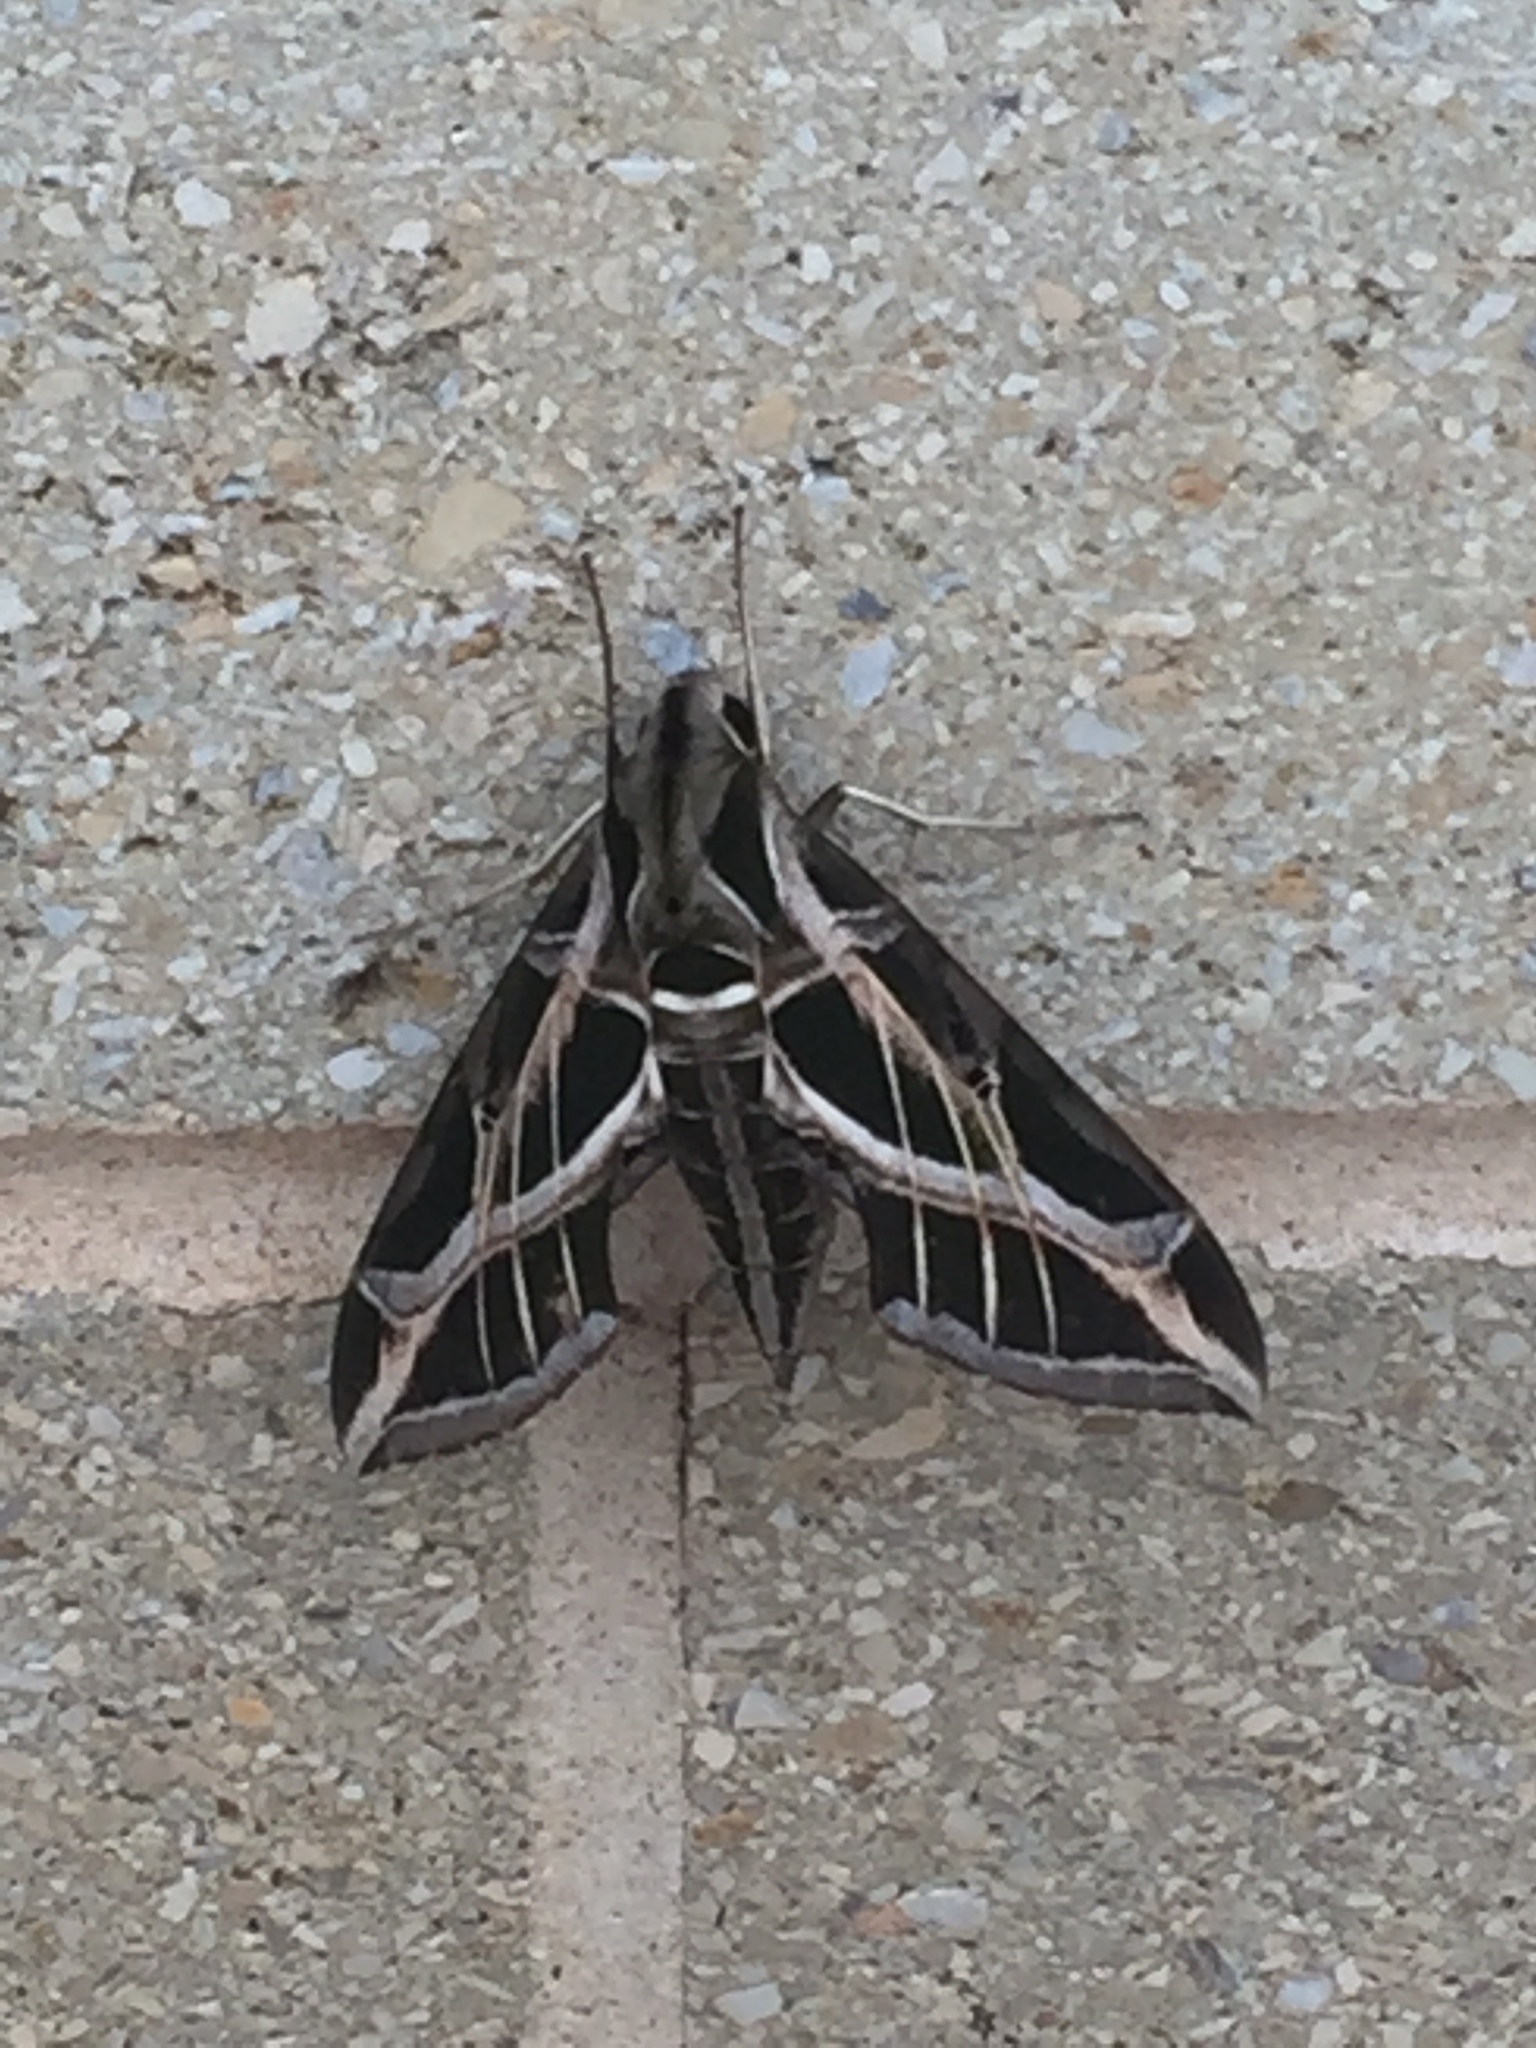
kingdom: Animalia
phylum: Arthropoda
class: Insecta
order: Lepidoptera
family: Sphingidae
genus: Eumorpha
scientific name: Eumorpha vitis
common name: Vine sphinx
